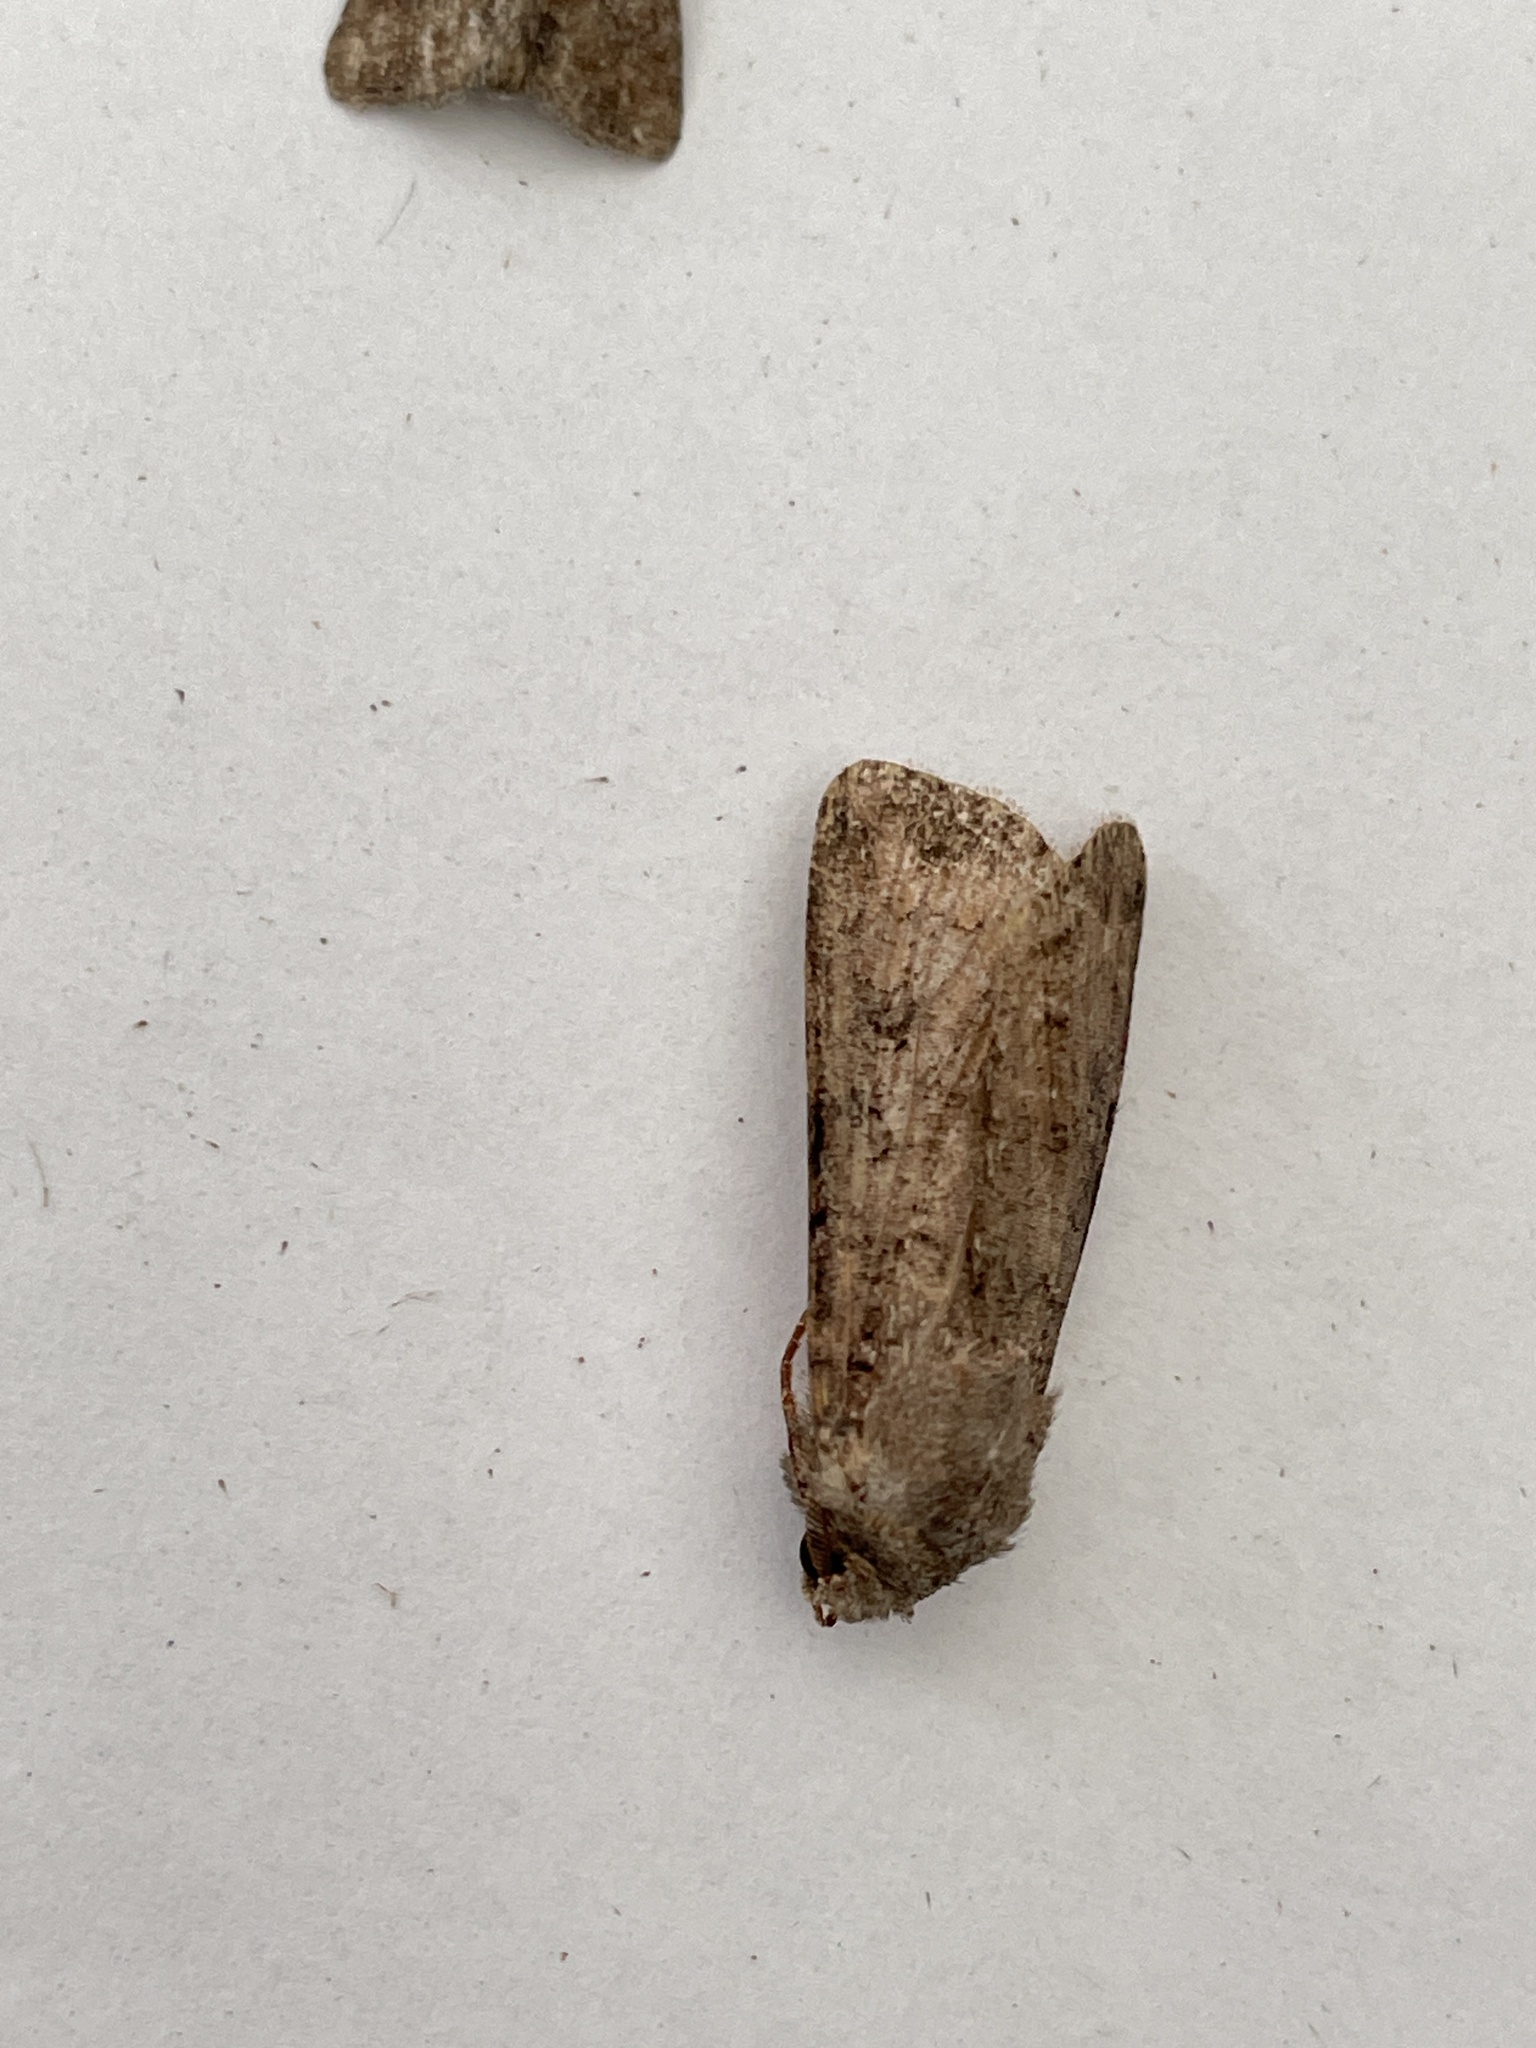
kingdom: Animalia
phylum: Arthropoda
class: Insecta
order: Lepidoptera
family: Noctuidae
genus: Agrotis
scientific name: Agrotis segetum
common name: Turnip moth
